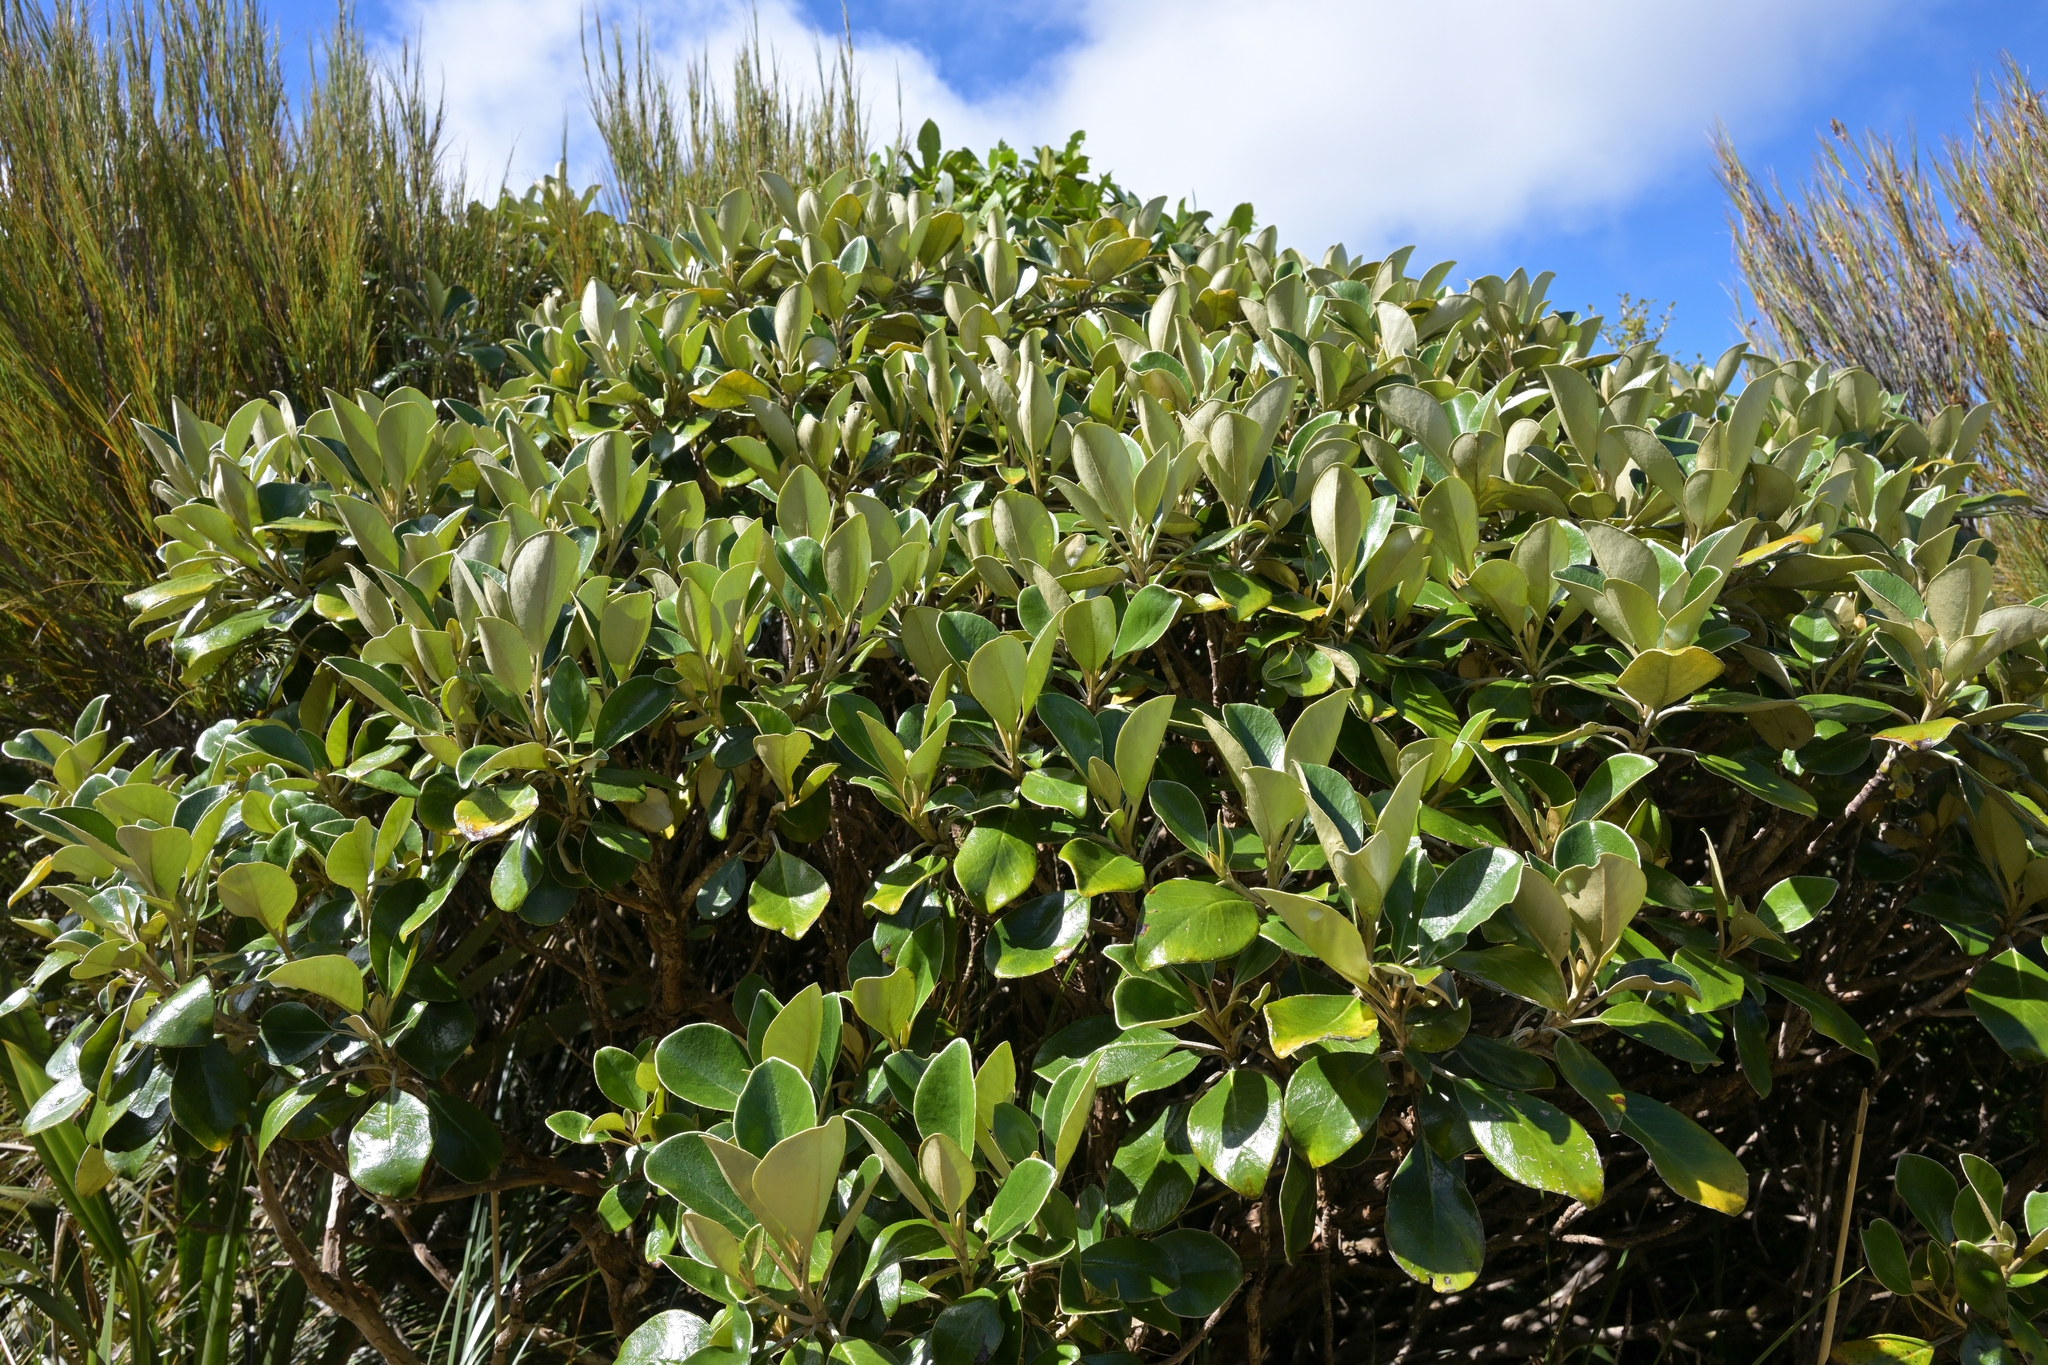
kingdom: Plantae
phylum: Tracheophyta
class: Magnoliopsida
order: Asterales
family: Asteraceae
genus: Brachyglottis
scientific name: Brachyglottis buchananii
